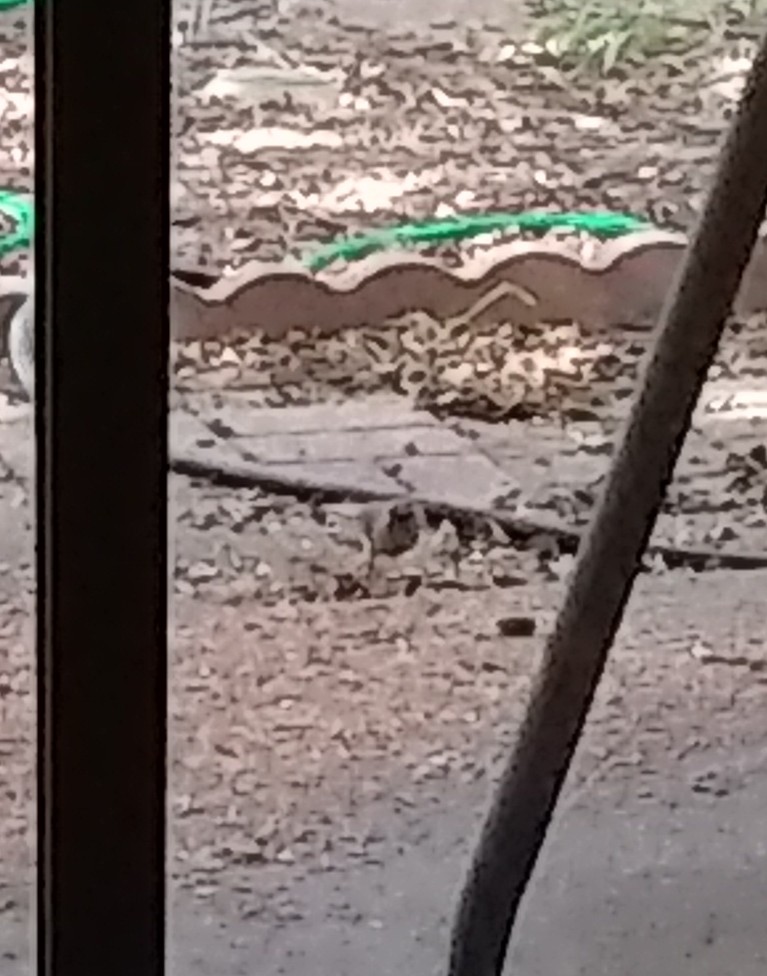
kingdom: Animalia
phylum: Chordata
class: Aves
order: Passeriformes
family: Cardinalidae
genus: Cardinalis
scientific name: Cardinalis cardinalis
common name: Northern cardinal
